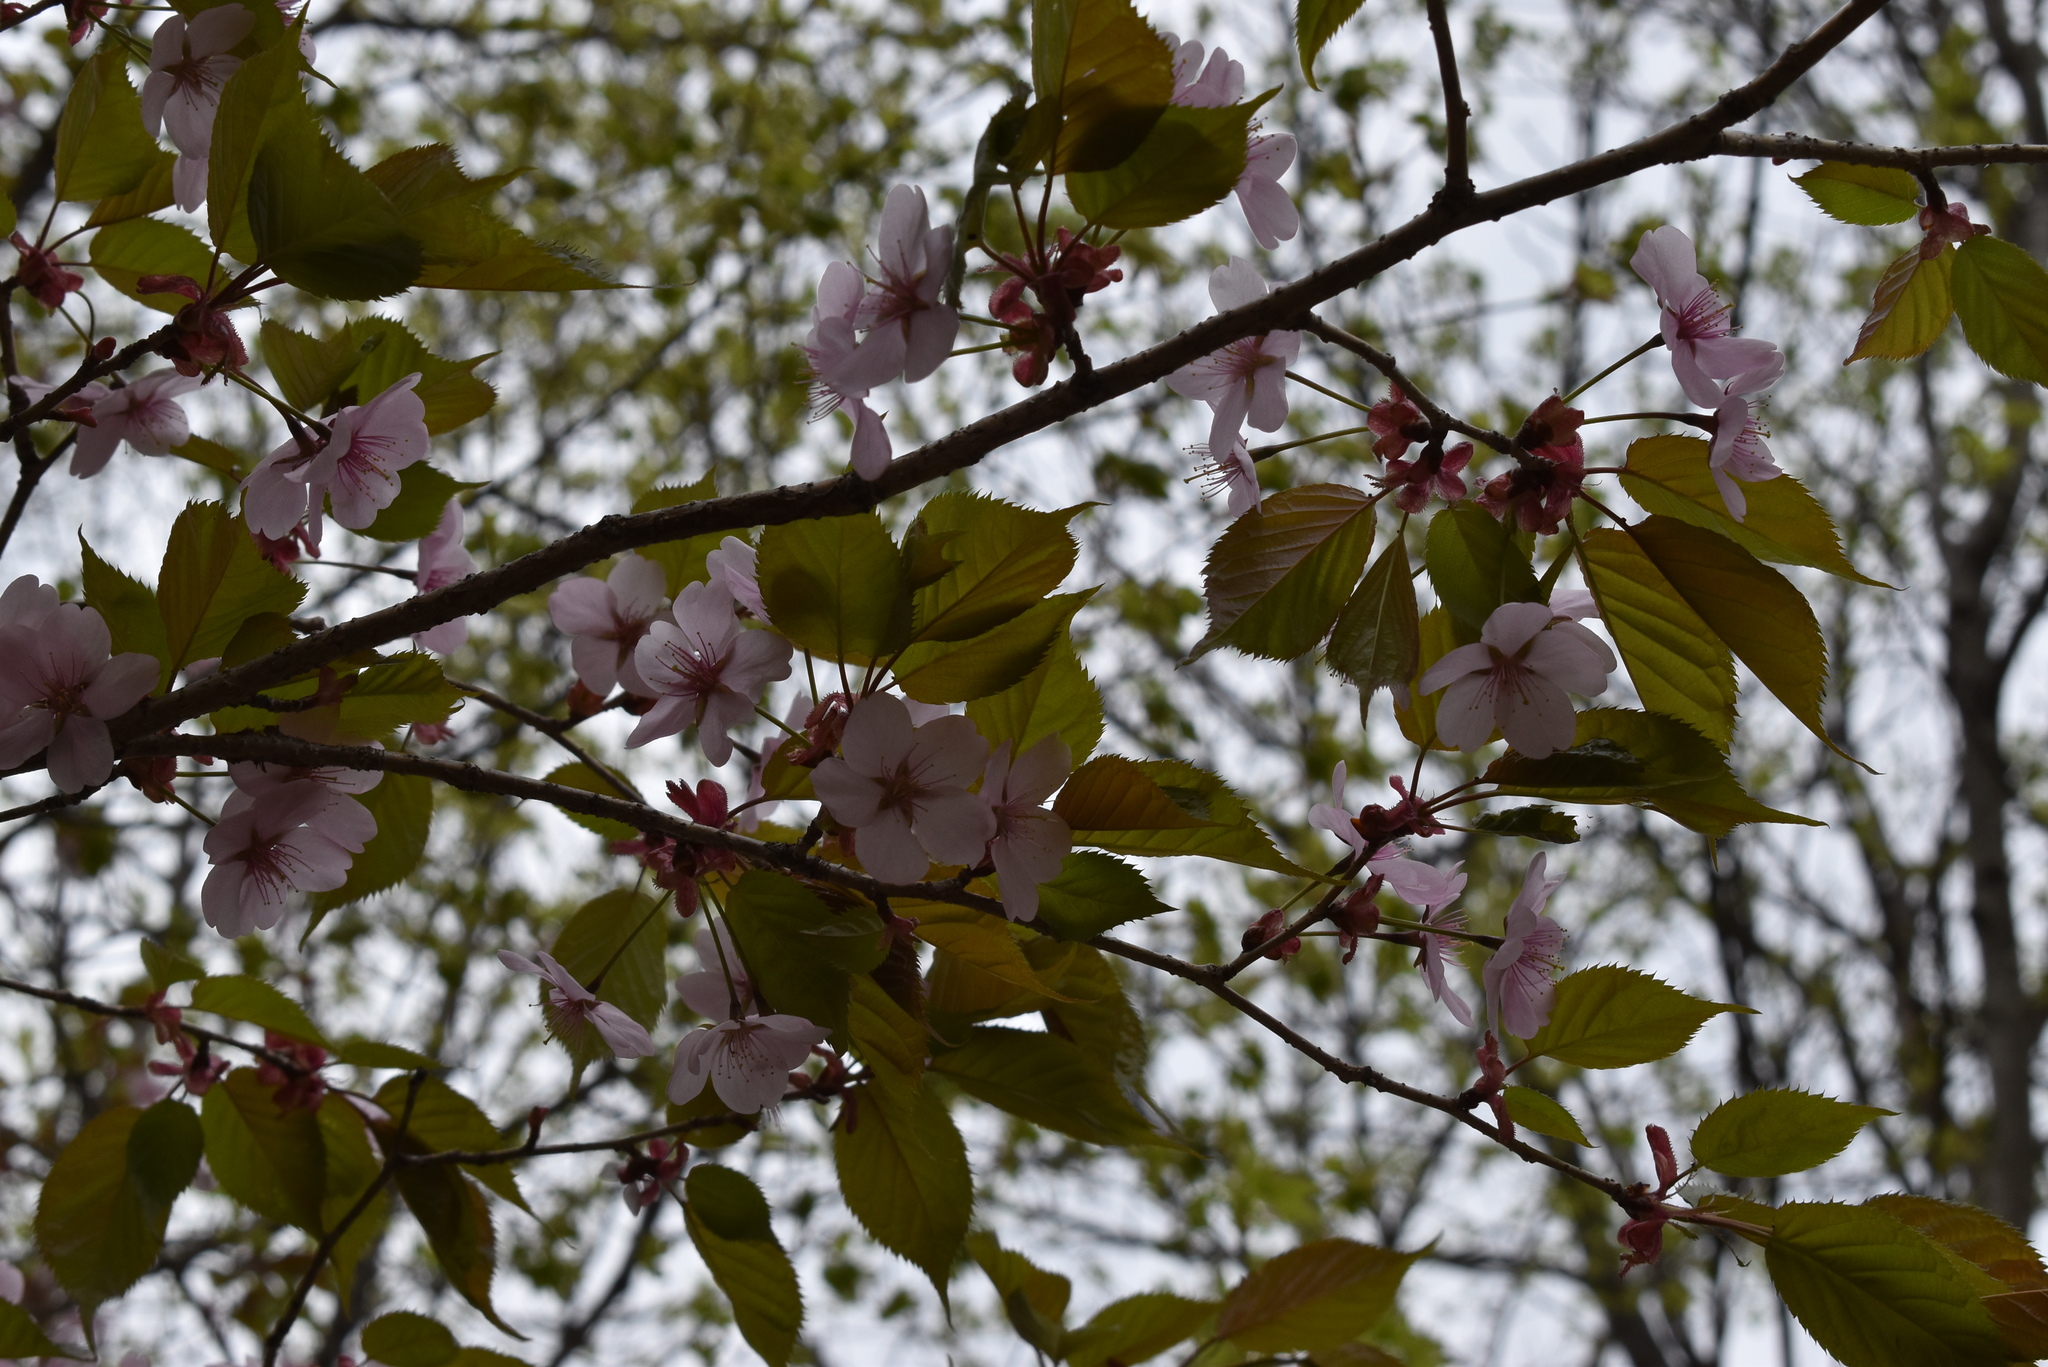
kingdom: Plantae
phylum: Tracheophyta
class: Magnoliopsida
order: Rosales
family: Rosaceae
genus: Prunus
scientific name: Prunus sargentii
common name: Sargent cherry
